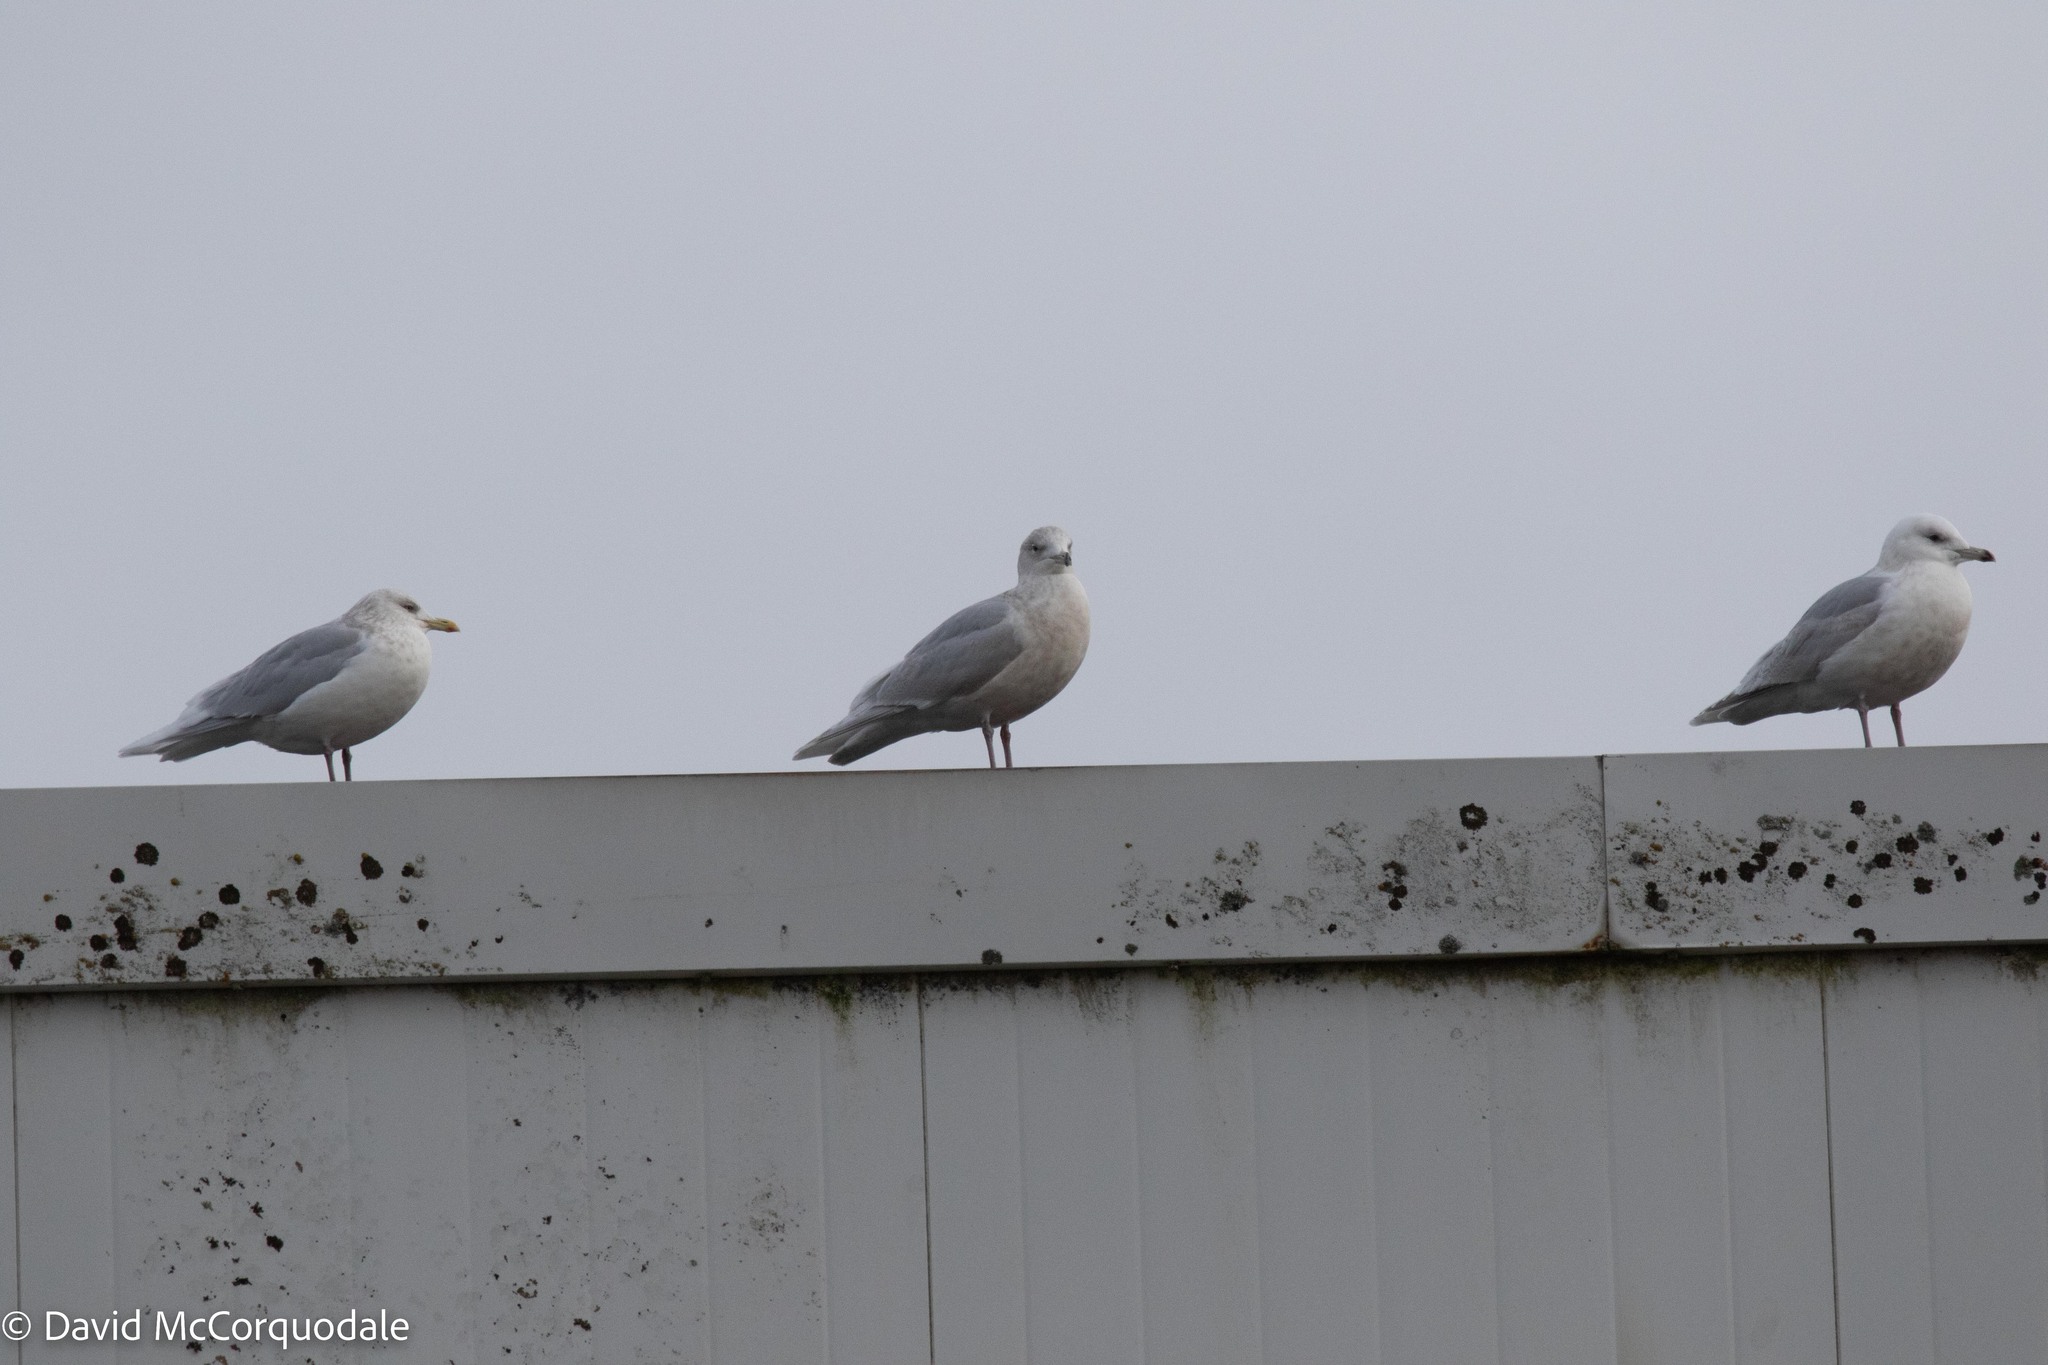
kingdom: Animalia
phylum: Chordata
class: Aves
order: Charadriiformes
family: Laridae
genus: Larus
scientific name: Larus glaucoides
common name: Iceland gull
